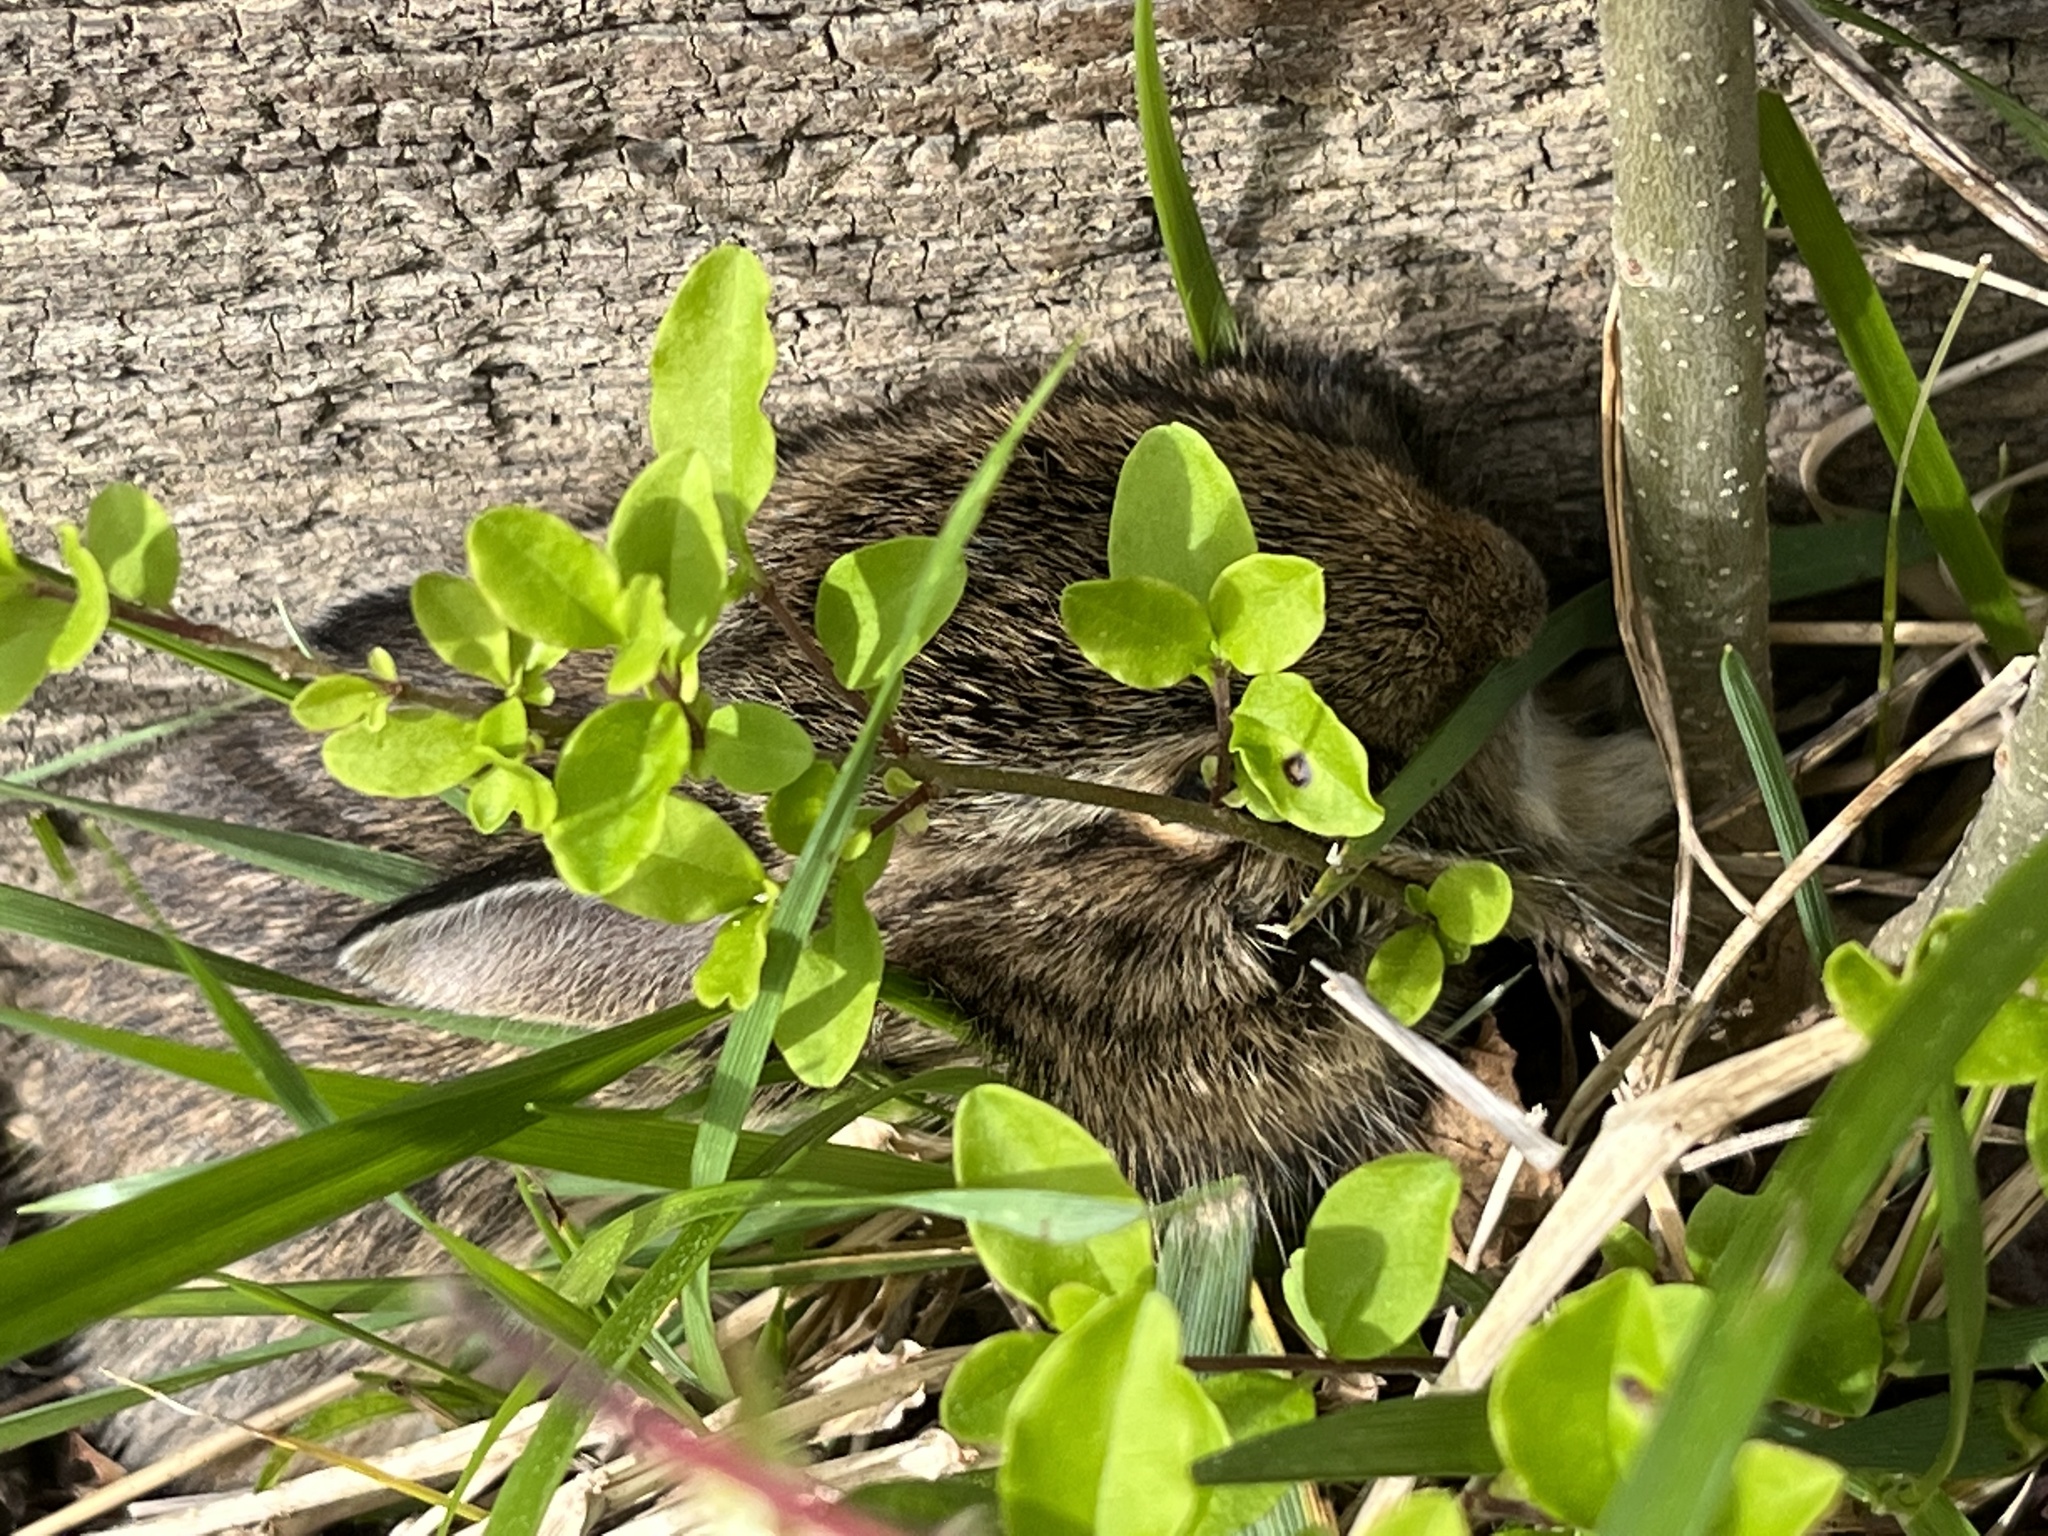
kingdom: Animalia
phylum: Chordata
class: Mammalia
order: Lagomorpha
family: Leporidae
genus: Sylvilagus
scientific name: Sylvilagus floridanus
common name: Eastern cottontail
